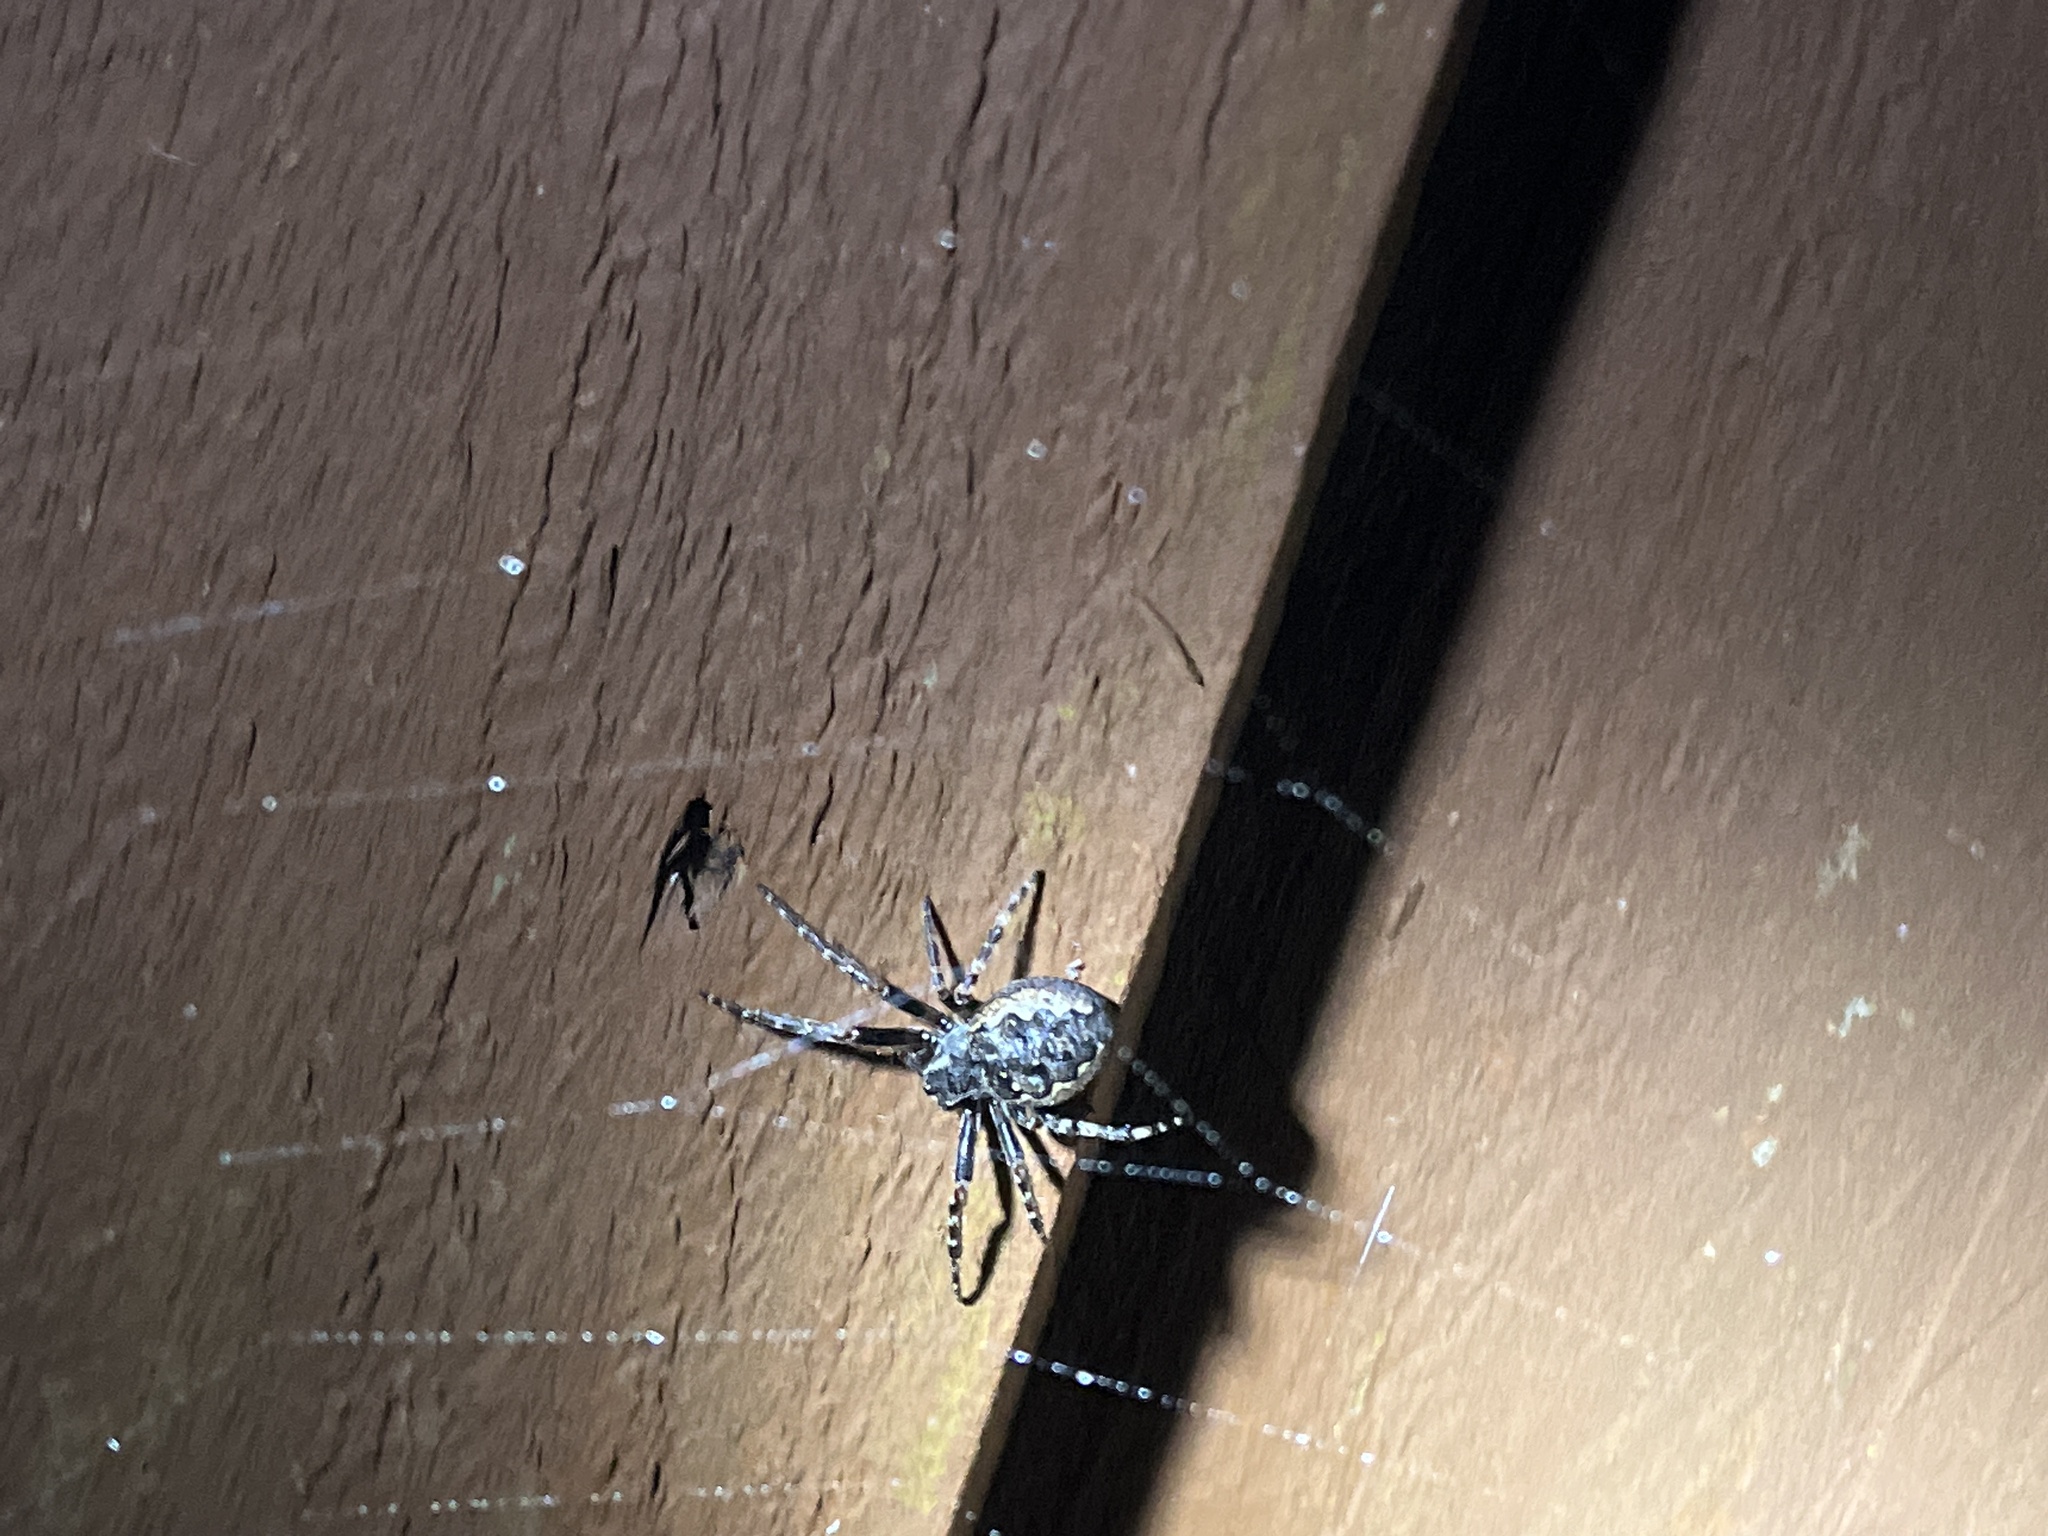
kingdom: Animalia
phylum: Arthropoda
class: Arachnida
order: Araneae
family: Araneidae
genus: Nuctenea
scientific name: Nuctenea umbratica
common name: Toad spider
